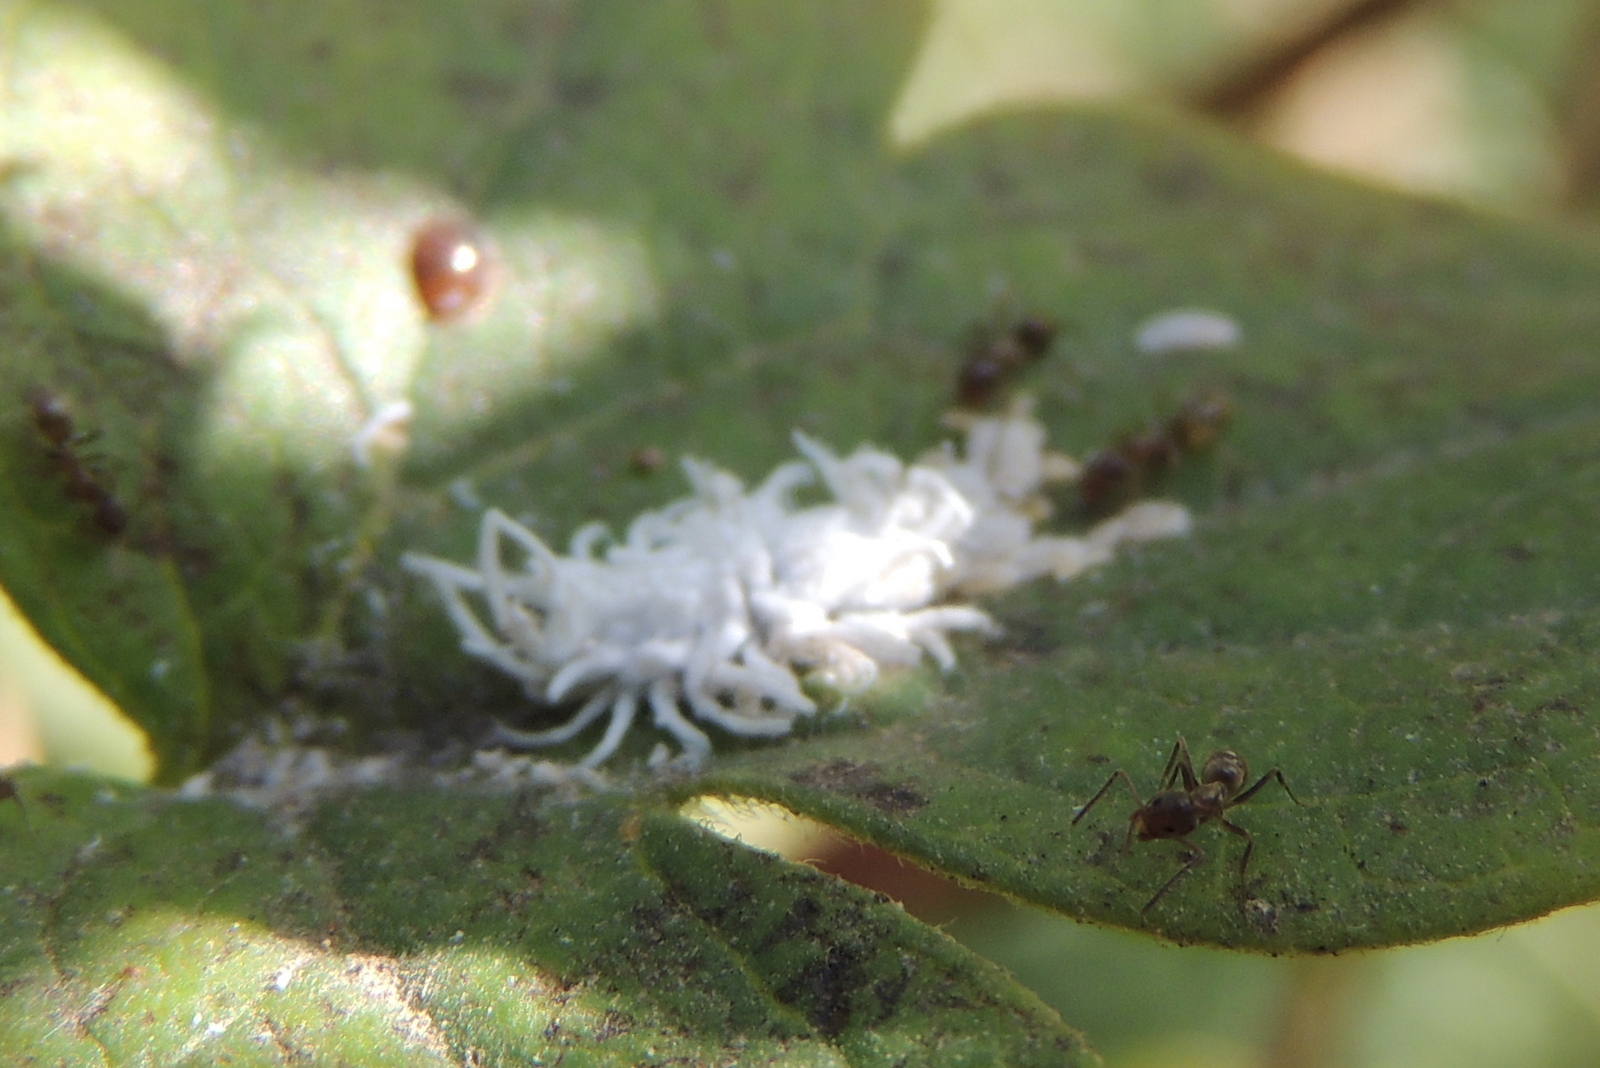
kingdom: Animalia
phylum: Arthropoda
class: Insecta
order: Hymenoptera
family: Formicidae
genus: Linepithema
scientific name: Linepithema humile
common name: Argentine ant
